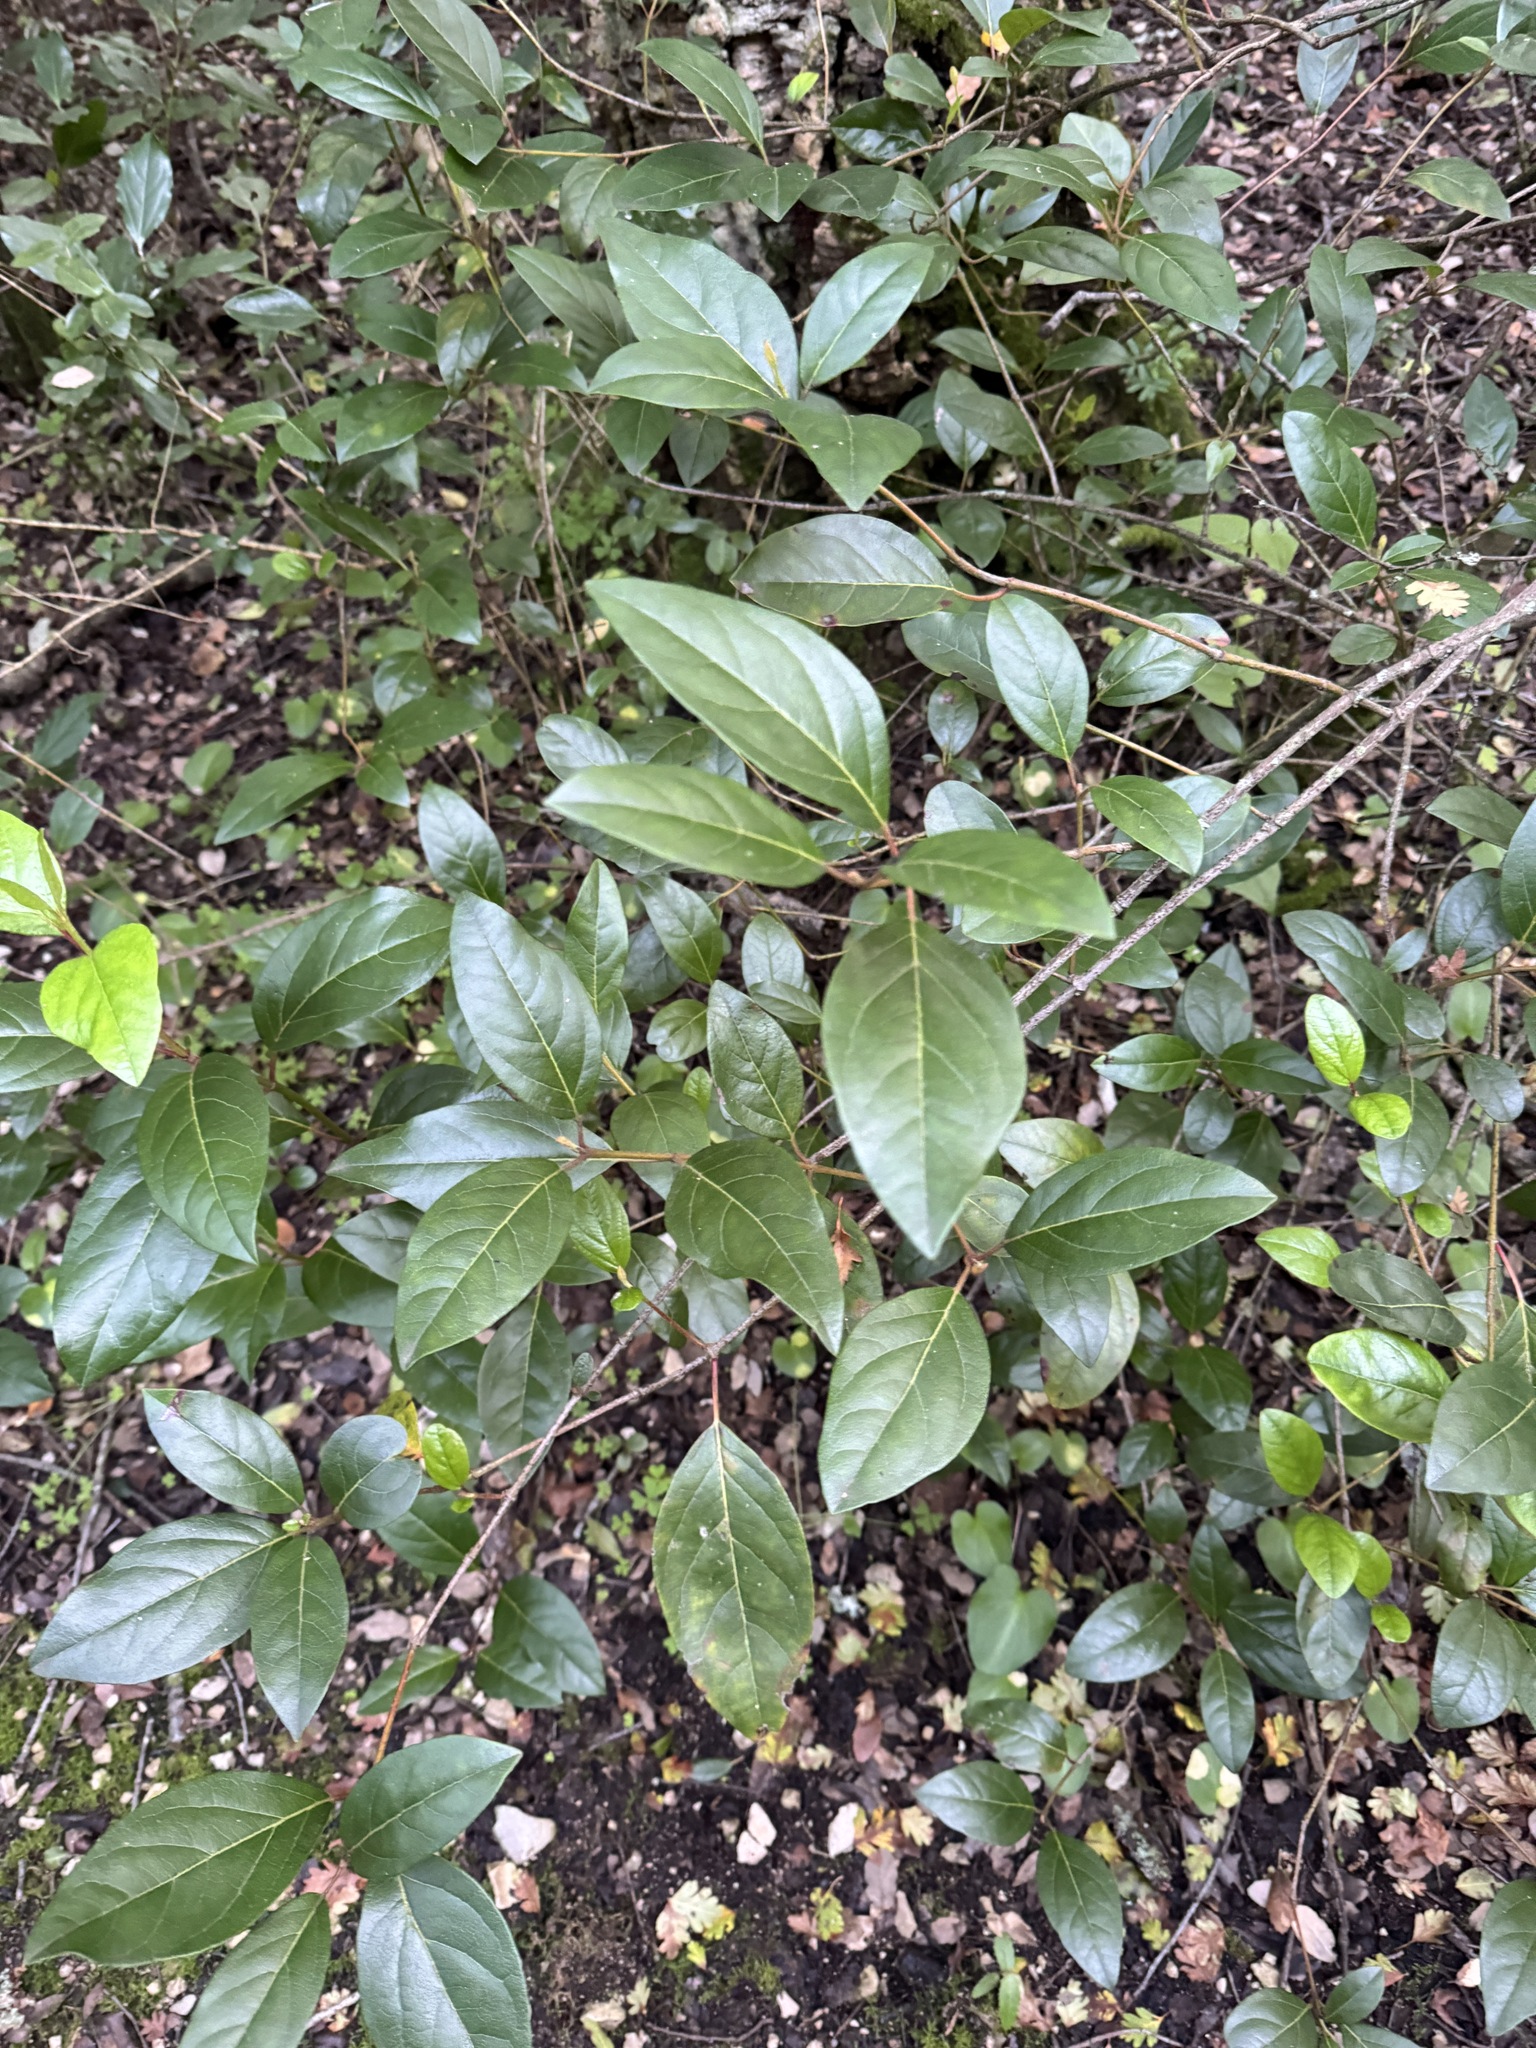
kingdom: Plantae
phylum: Tracheophyta
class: Magnoliopsida
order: Dipsacales
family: Viburnaceae
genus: Viburnum
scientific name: Viburnum tinus
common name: Laurustinus
